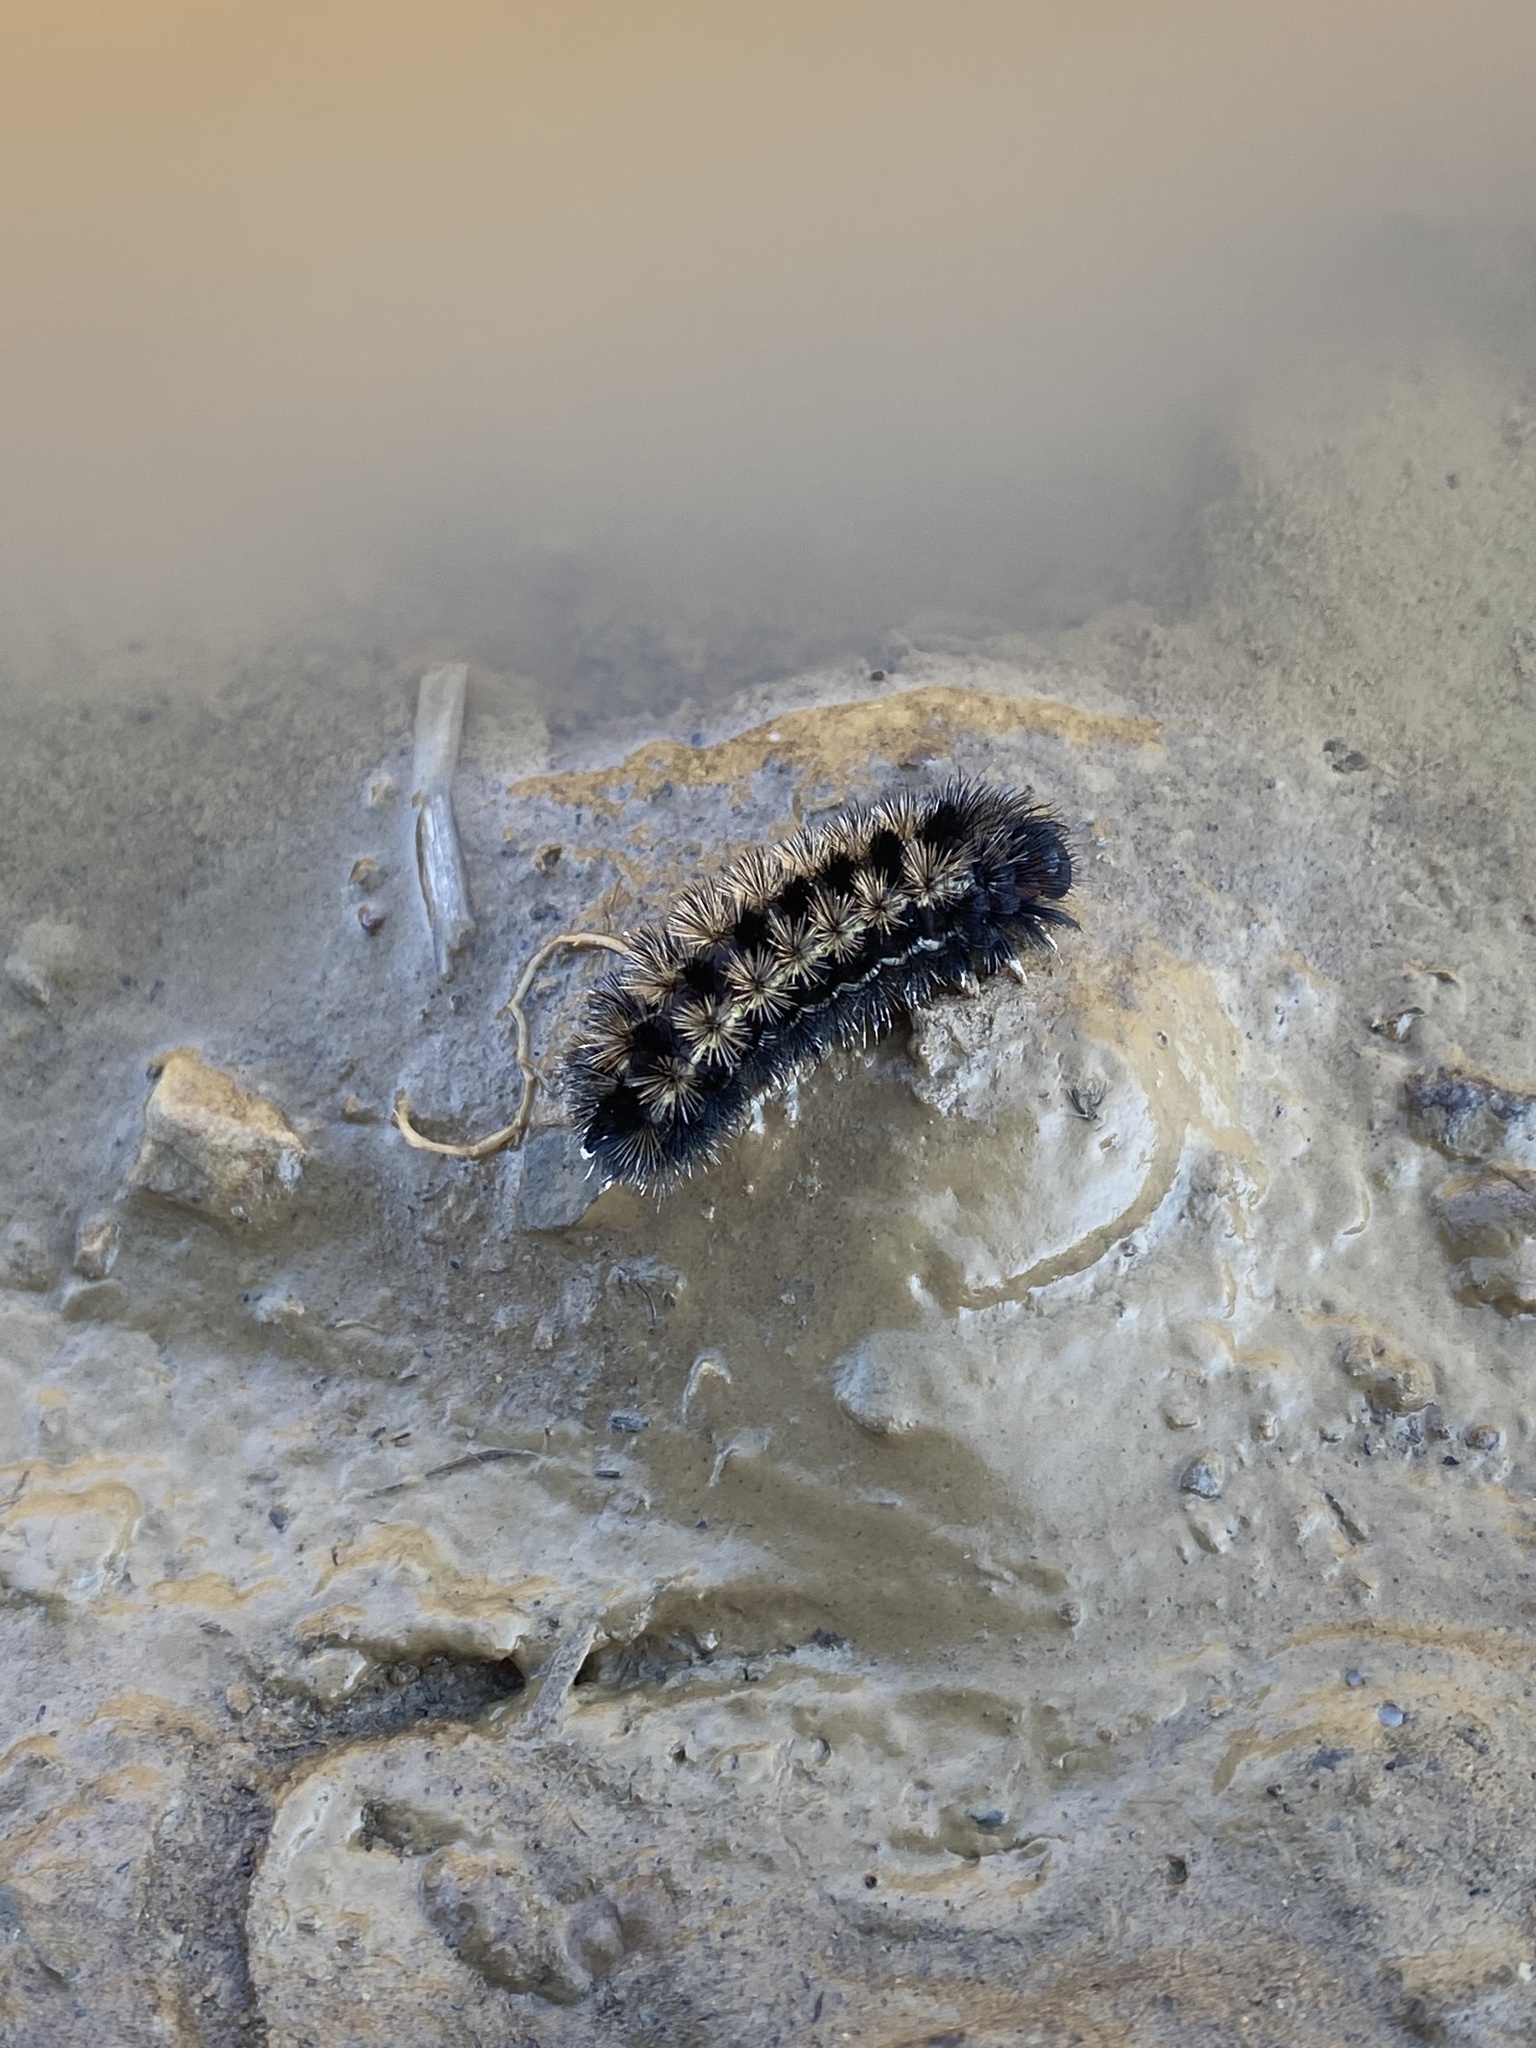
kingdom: Animalia
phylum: Arthropoda
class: Insecta
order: Lepidoptera
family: Erebidae
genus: Ctenucha
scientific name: Ctenucha virginica
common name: Virginia ctenucha moth
